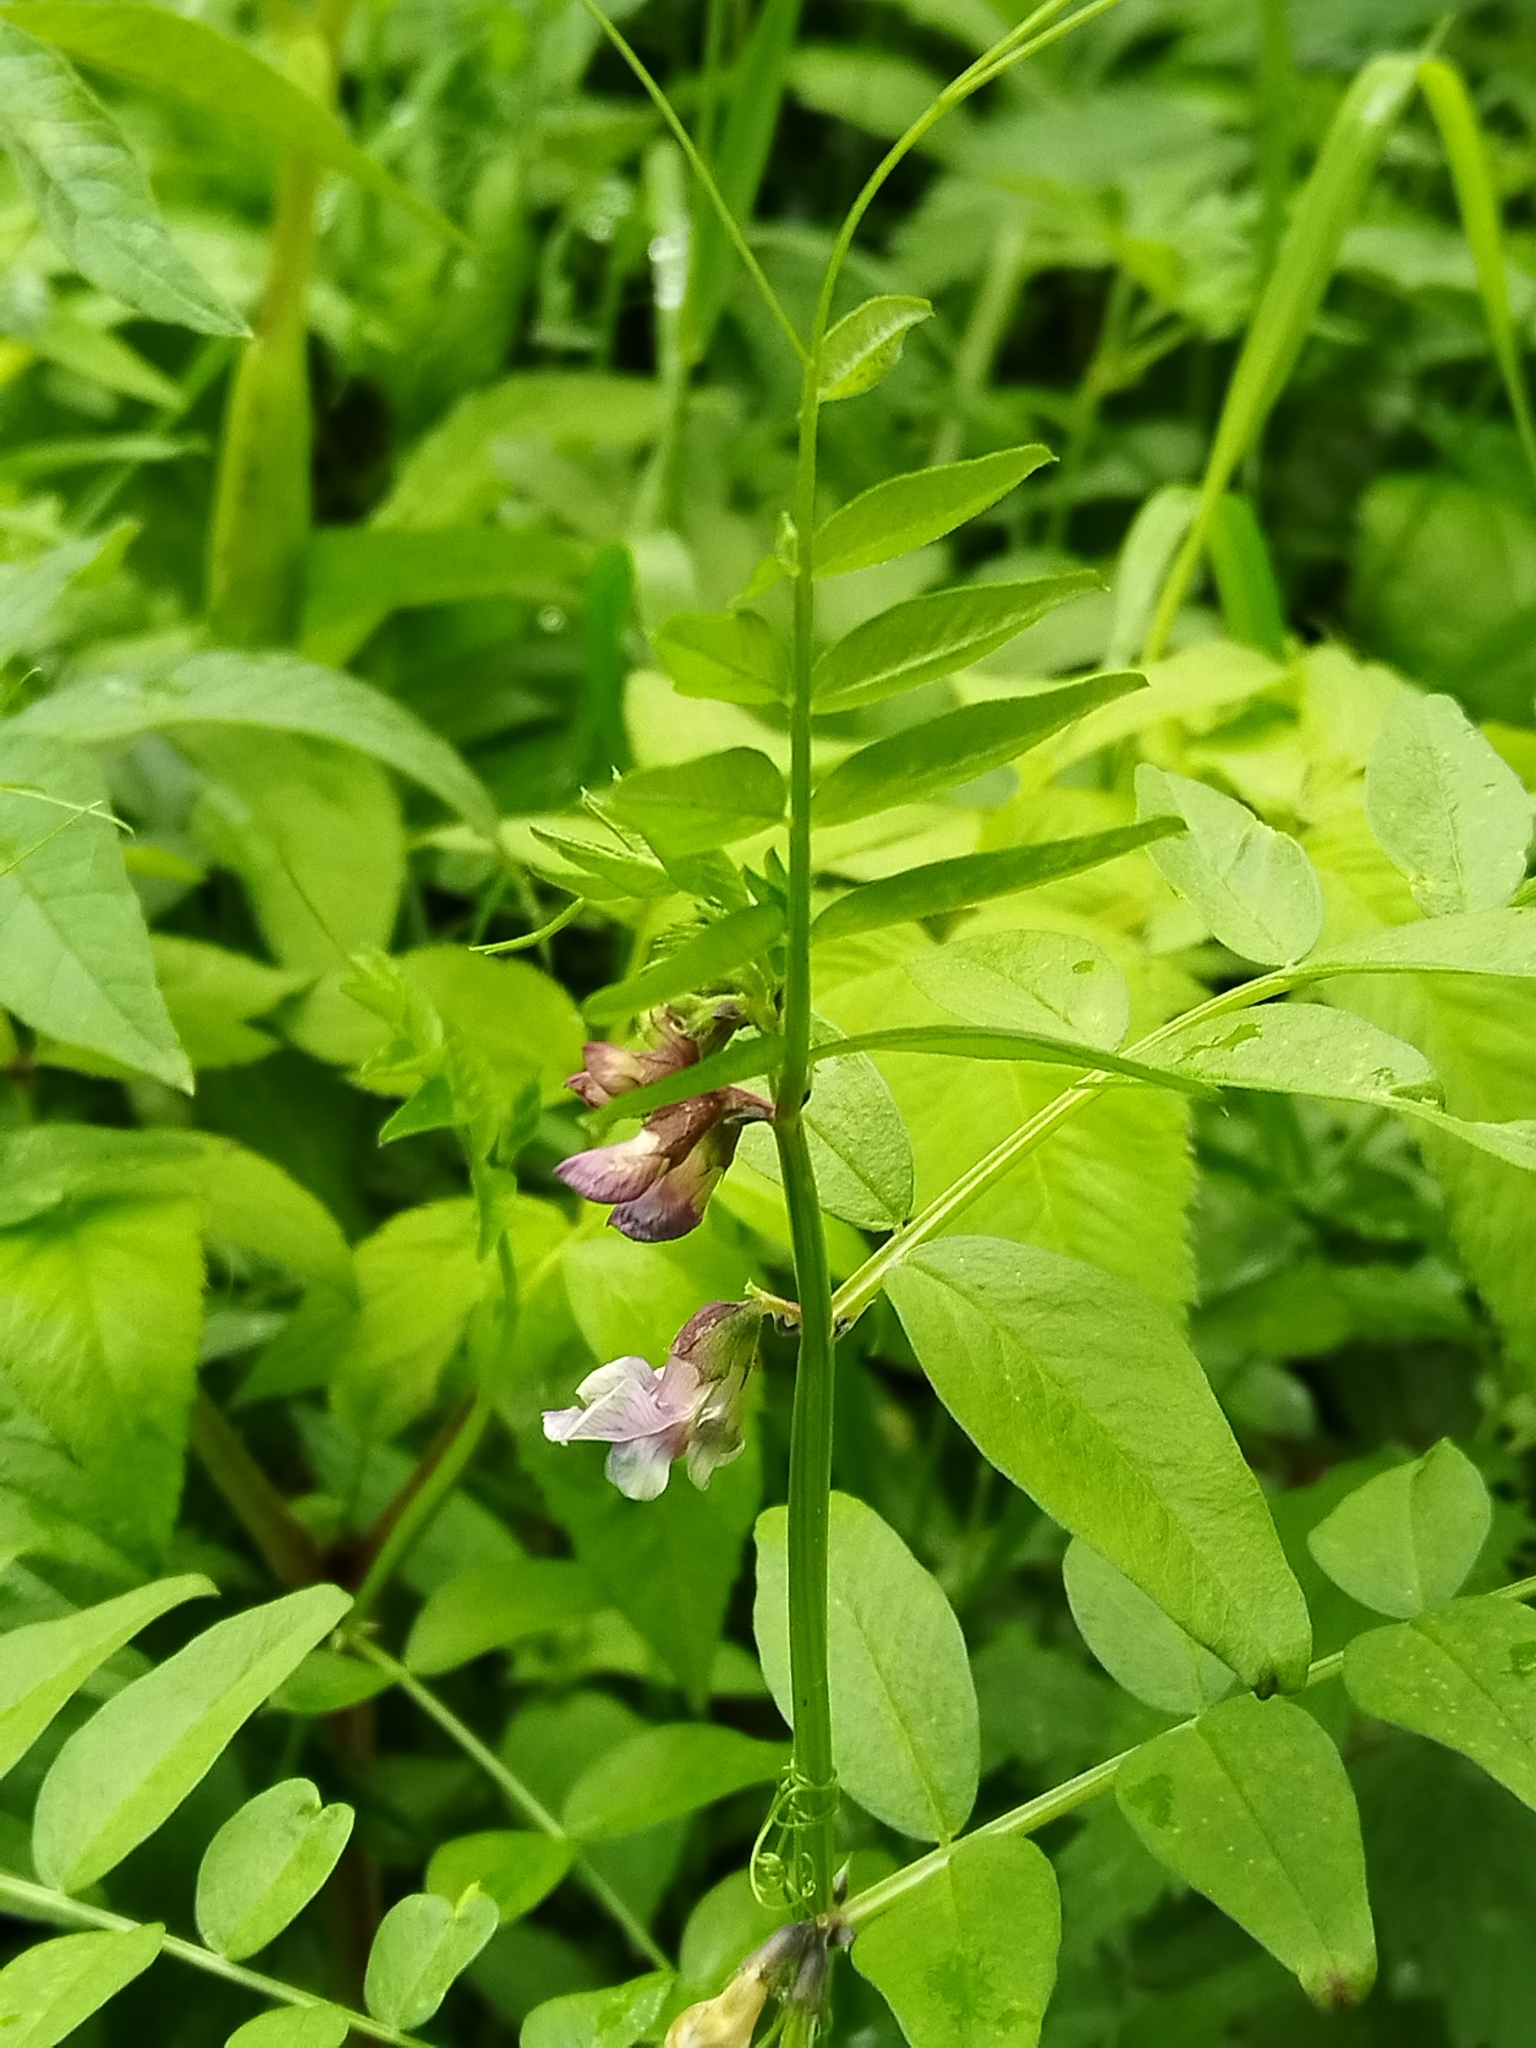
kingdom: Plantae
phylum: Tracheophyta
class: Magnoliopsida
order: Fabales
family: Fabaceae
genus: Vicia
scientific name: Vicia sepium
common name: Bush vetch
